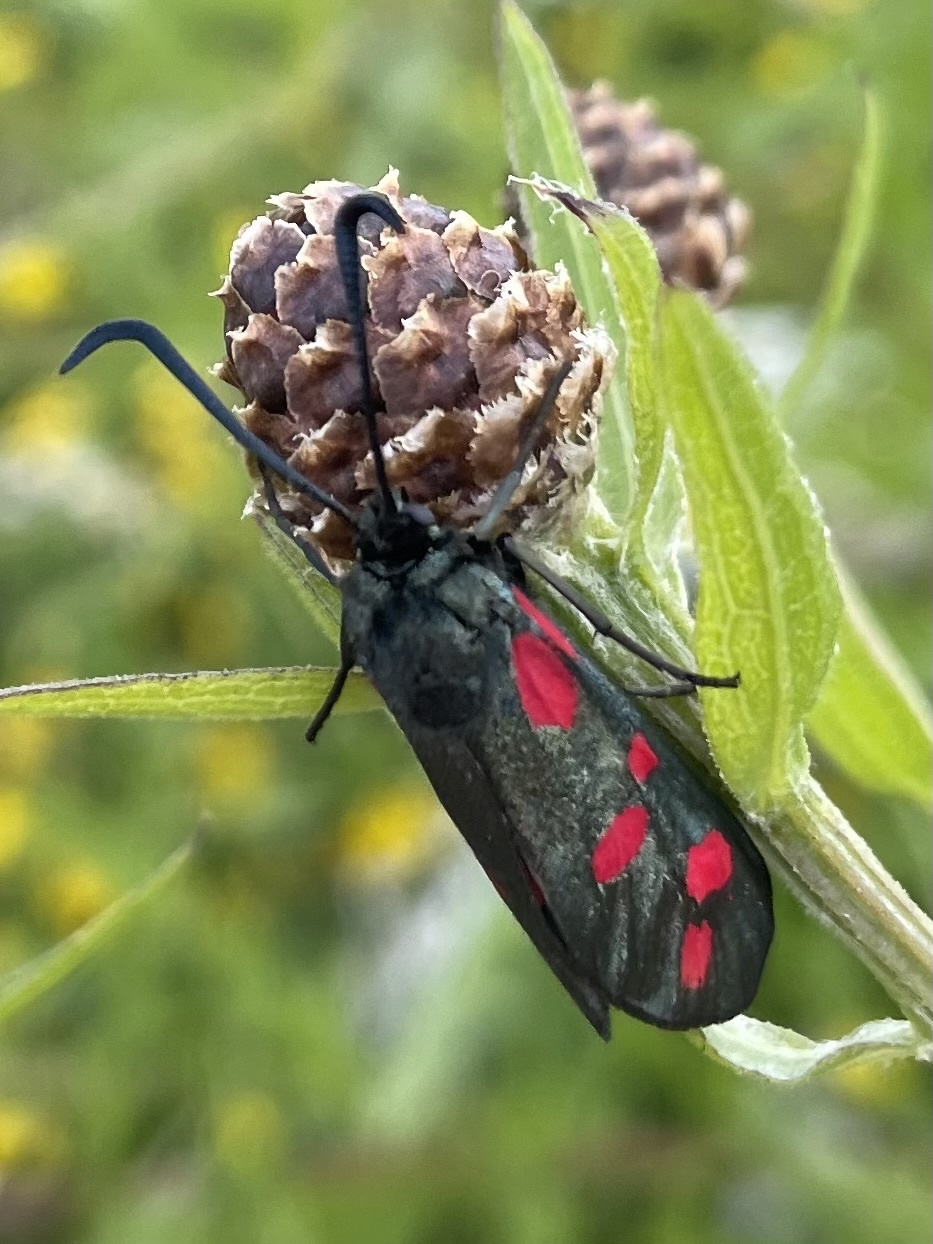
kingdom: Animalia
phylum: Arthropoda
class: Insecta
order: Lepidoptera
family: Zygaenidae
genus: Zygaena
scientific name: Zygaena filipendulae
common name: Six-spot burnet
